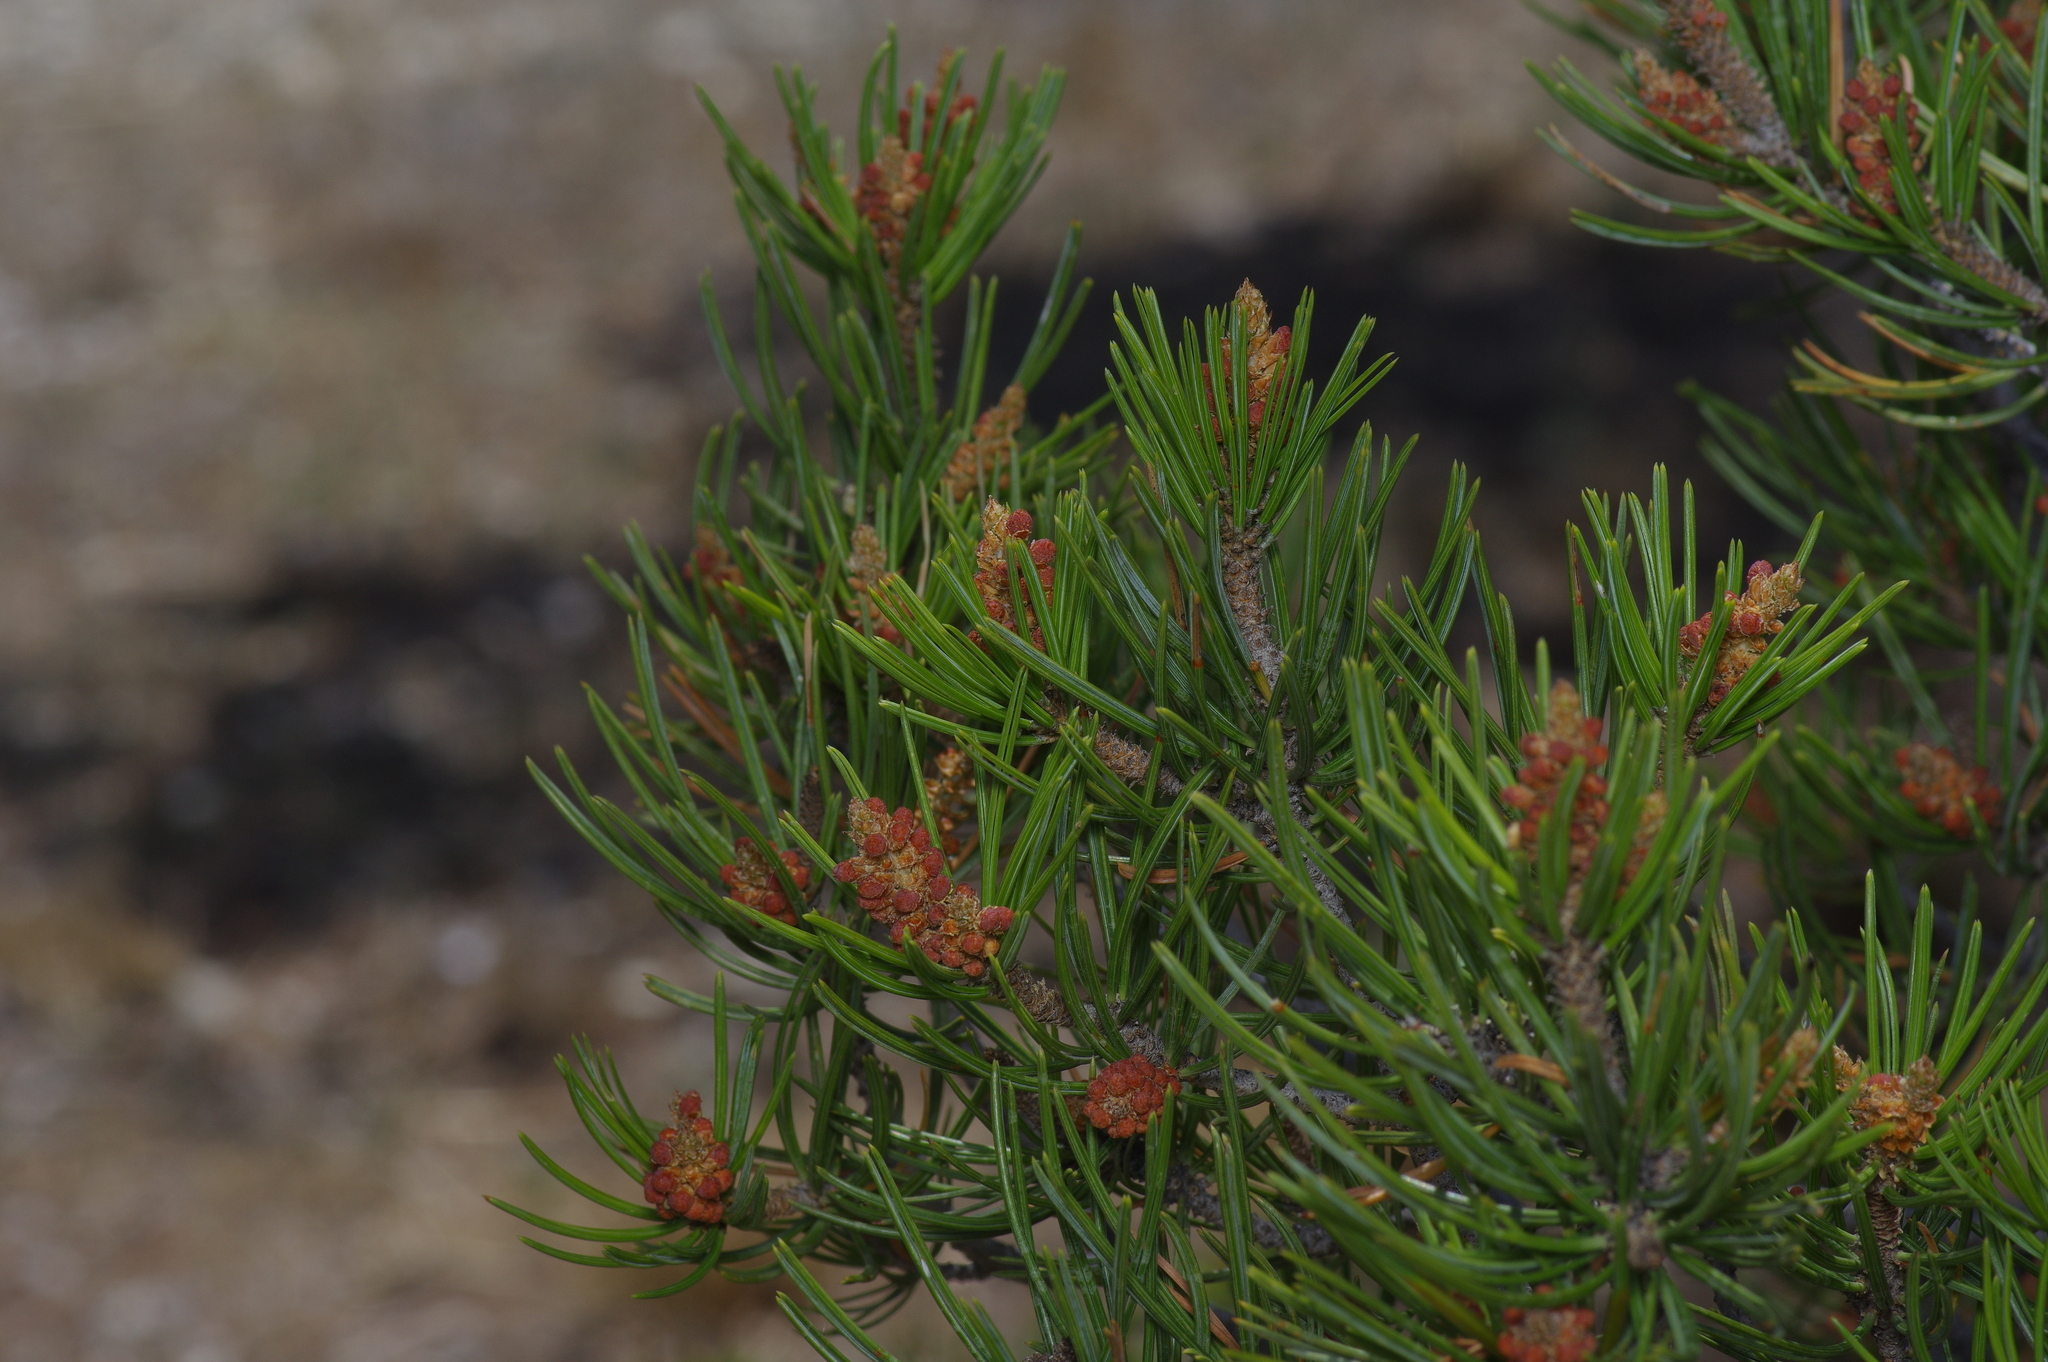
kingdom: Plantae
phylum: Tracheophyta
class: Pinopsida
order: Pinales
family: Pinaceae
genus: Pinus
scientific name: Pinus remota
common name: Nut pine
